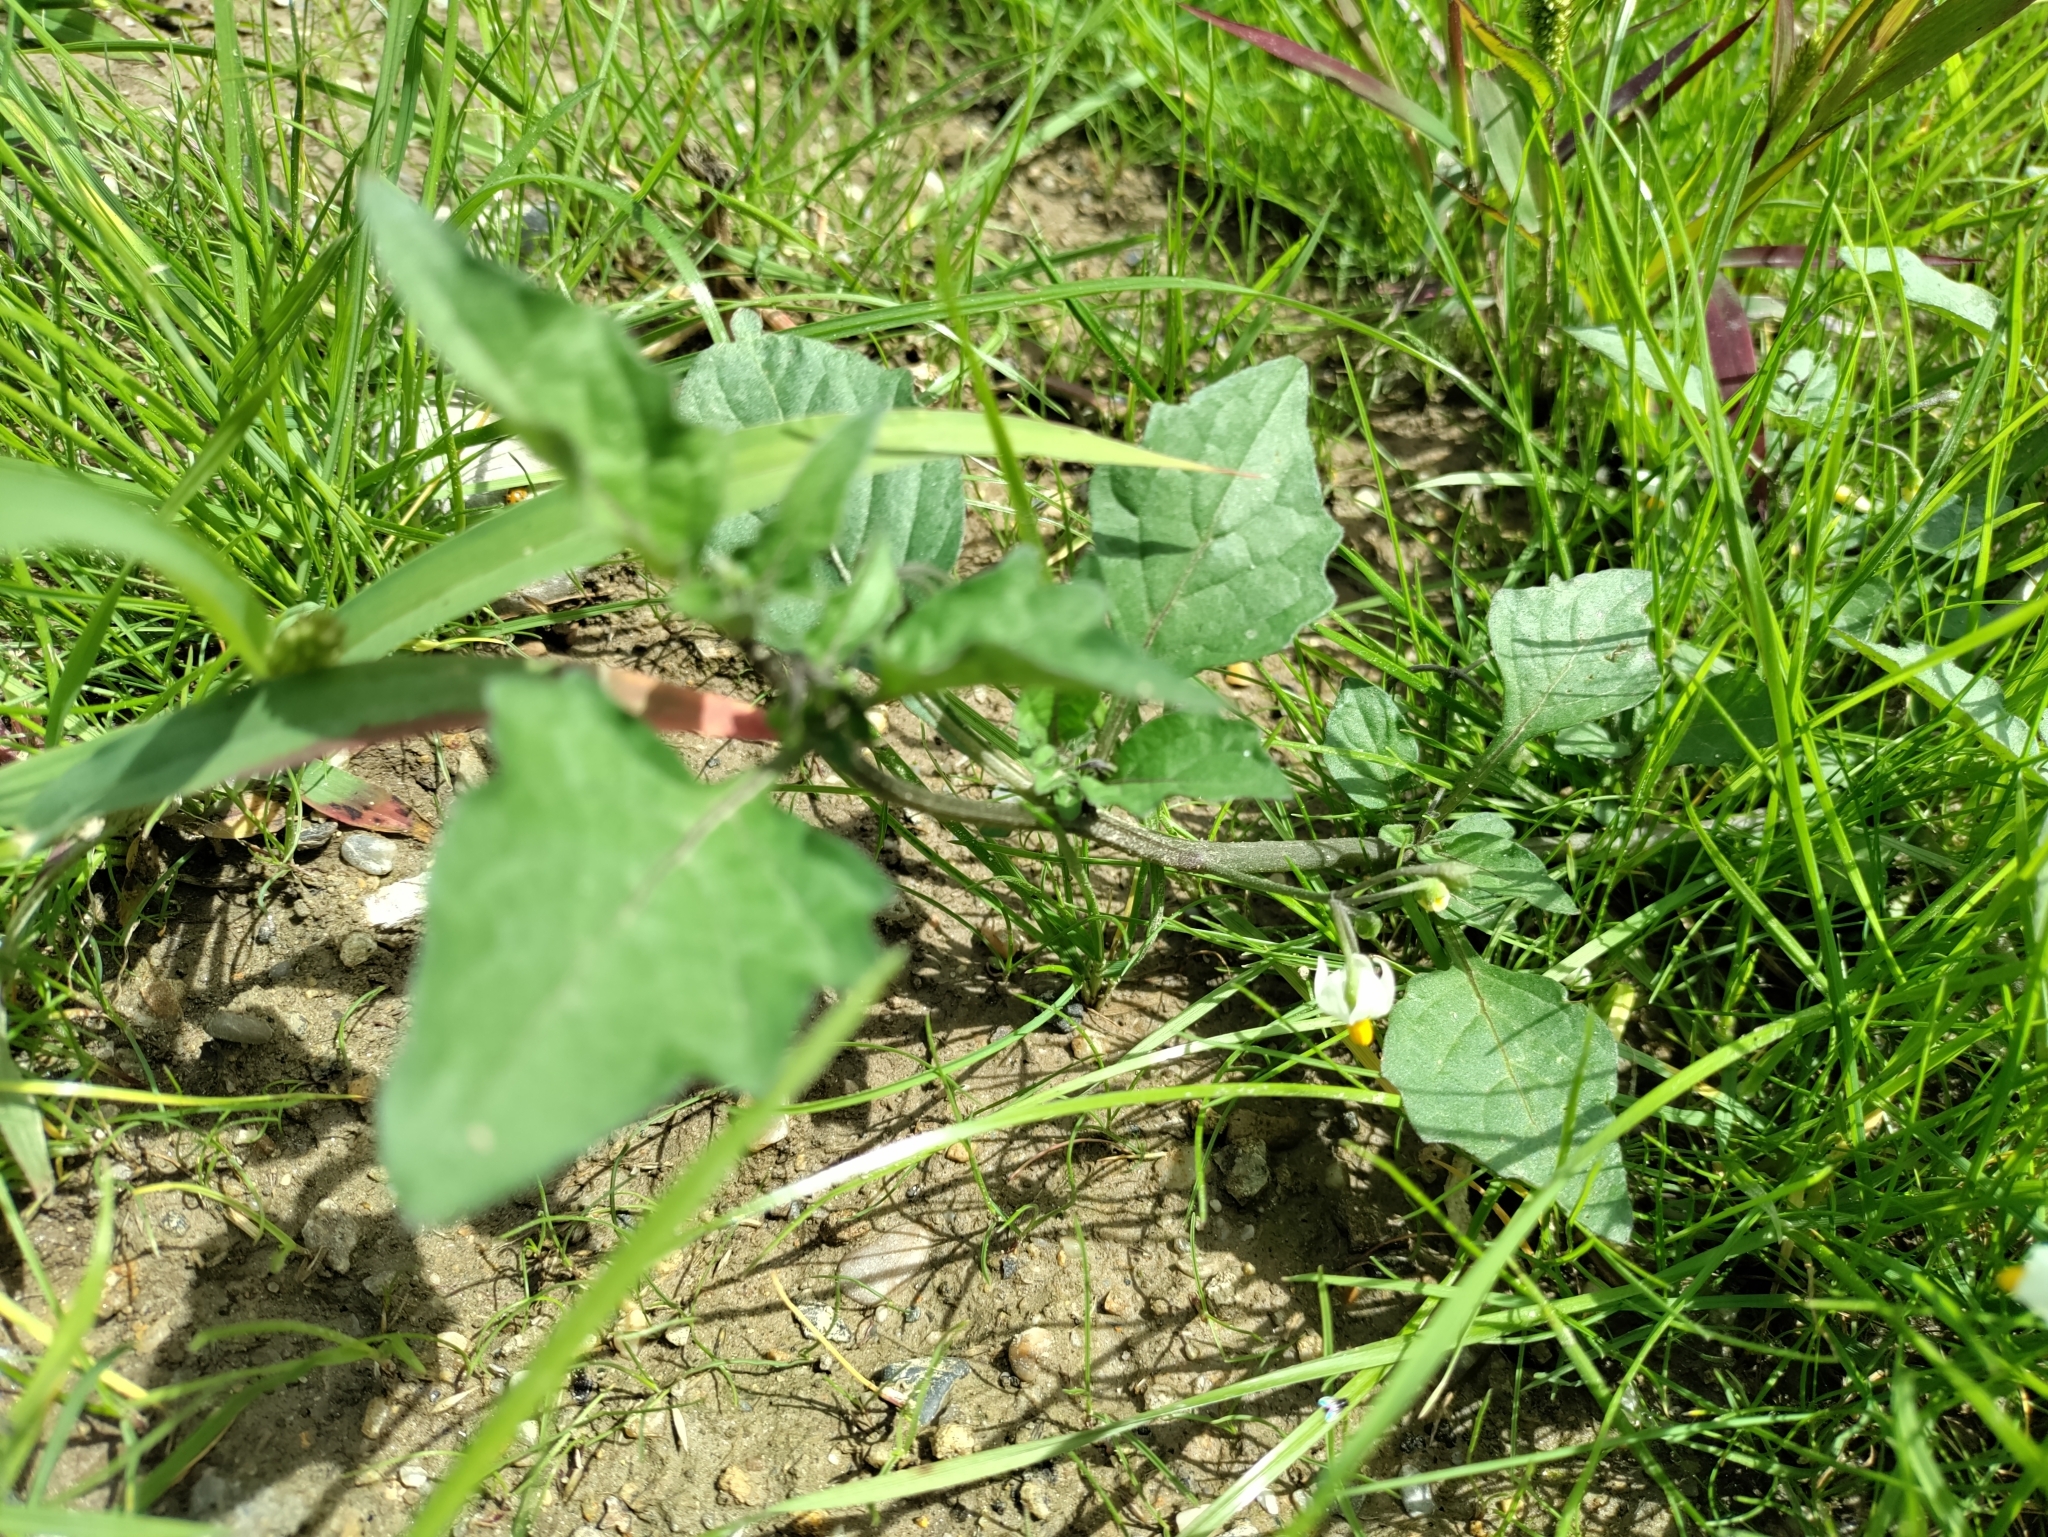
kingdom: Plantae
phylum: Tracheophyta
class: Magnoliopsida
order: Solanales
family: Solanaceae
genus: Solanum
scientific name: Solanum nigrum
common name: Black nightshade
